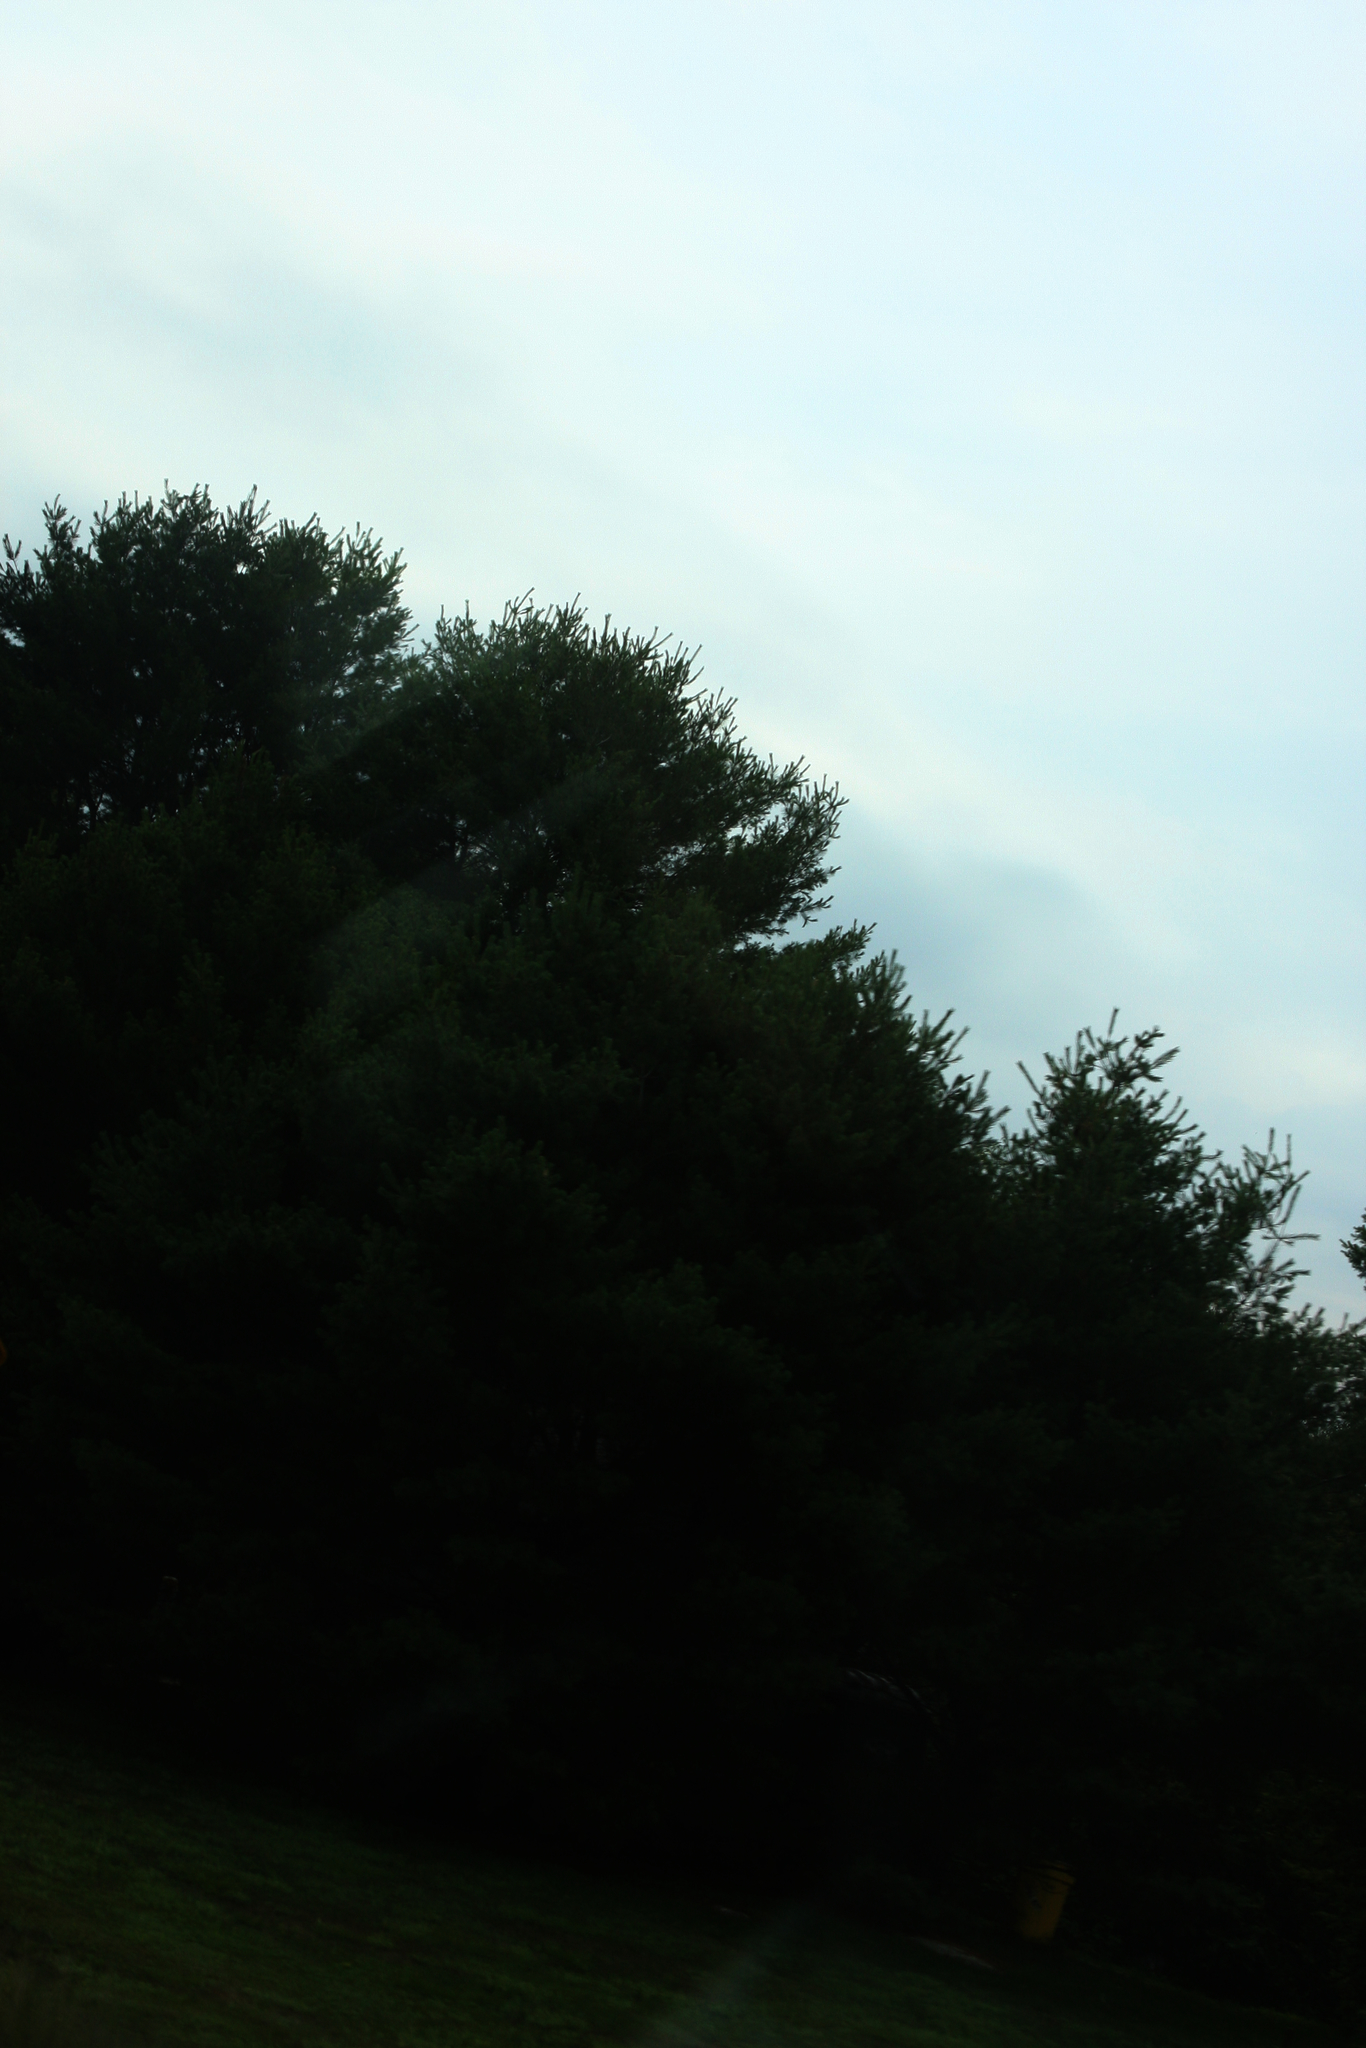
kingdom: Plantae
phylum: Tracheophyta
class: Pinopsida
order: Pinales
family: Pinaceae
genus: Pinus
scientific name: Pinus strobus
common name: Weymouth pine
